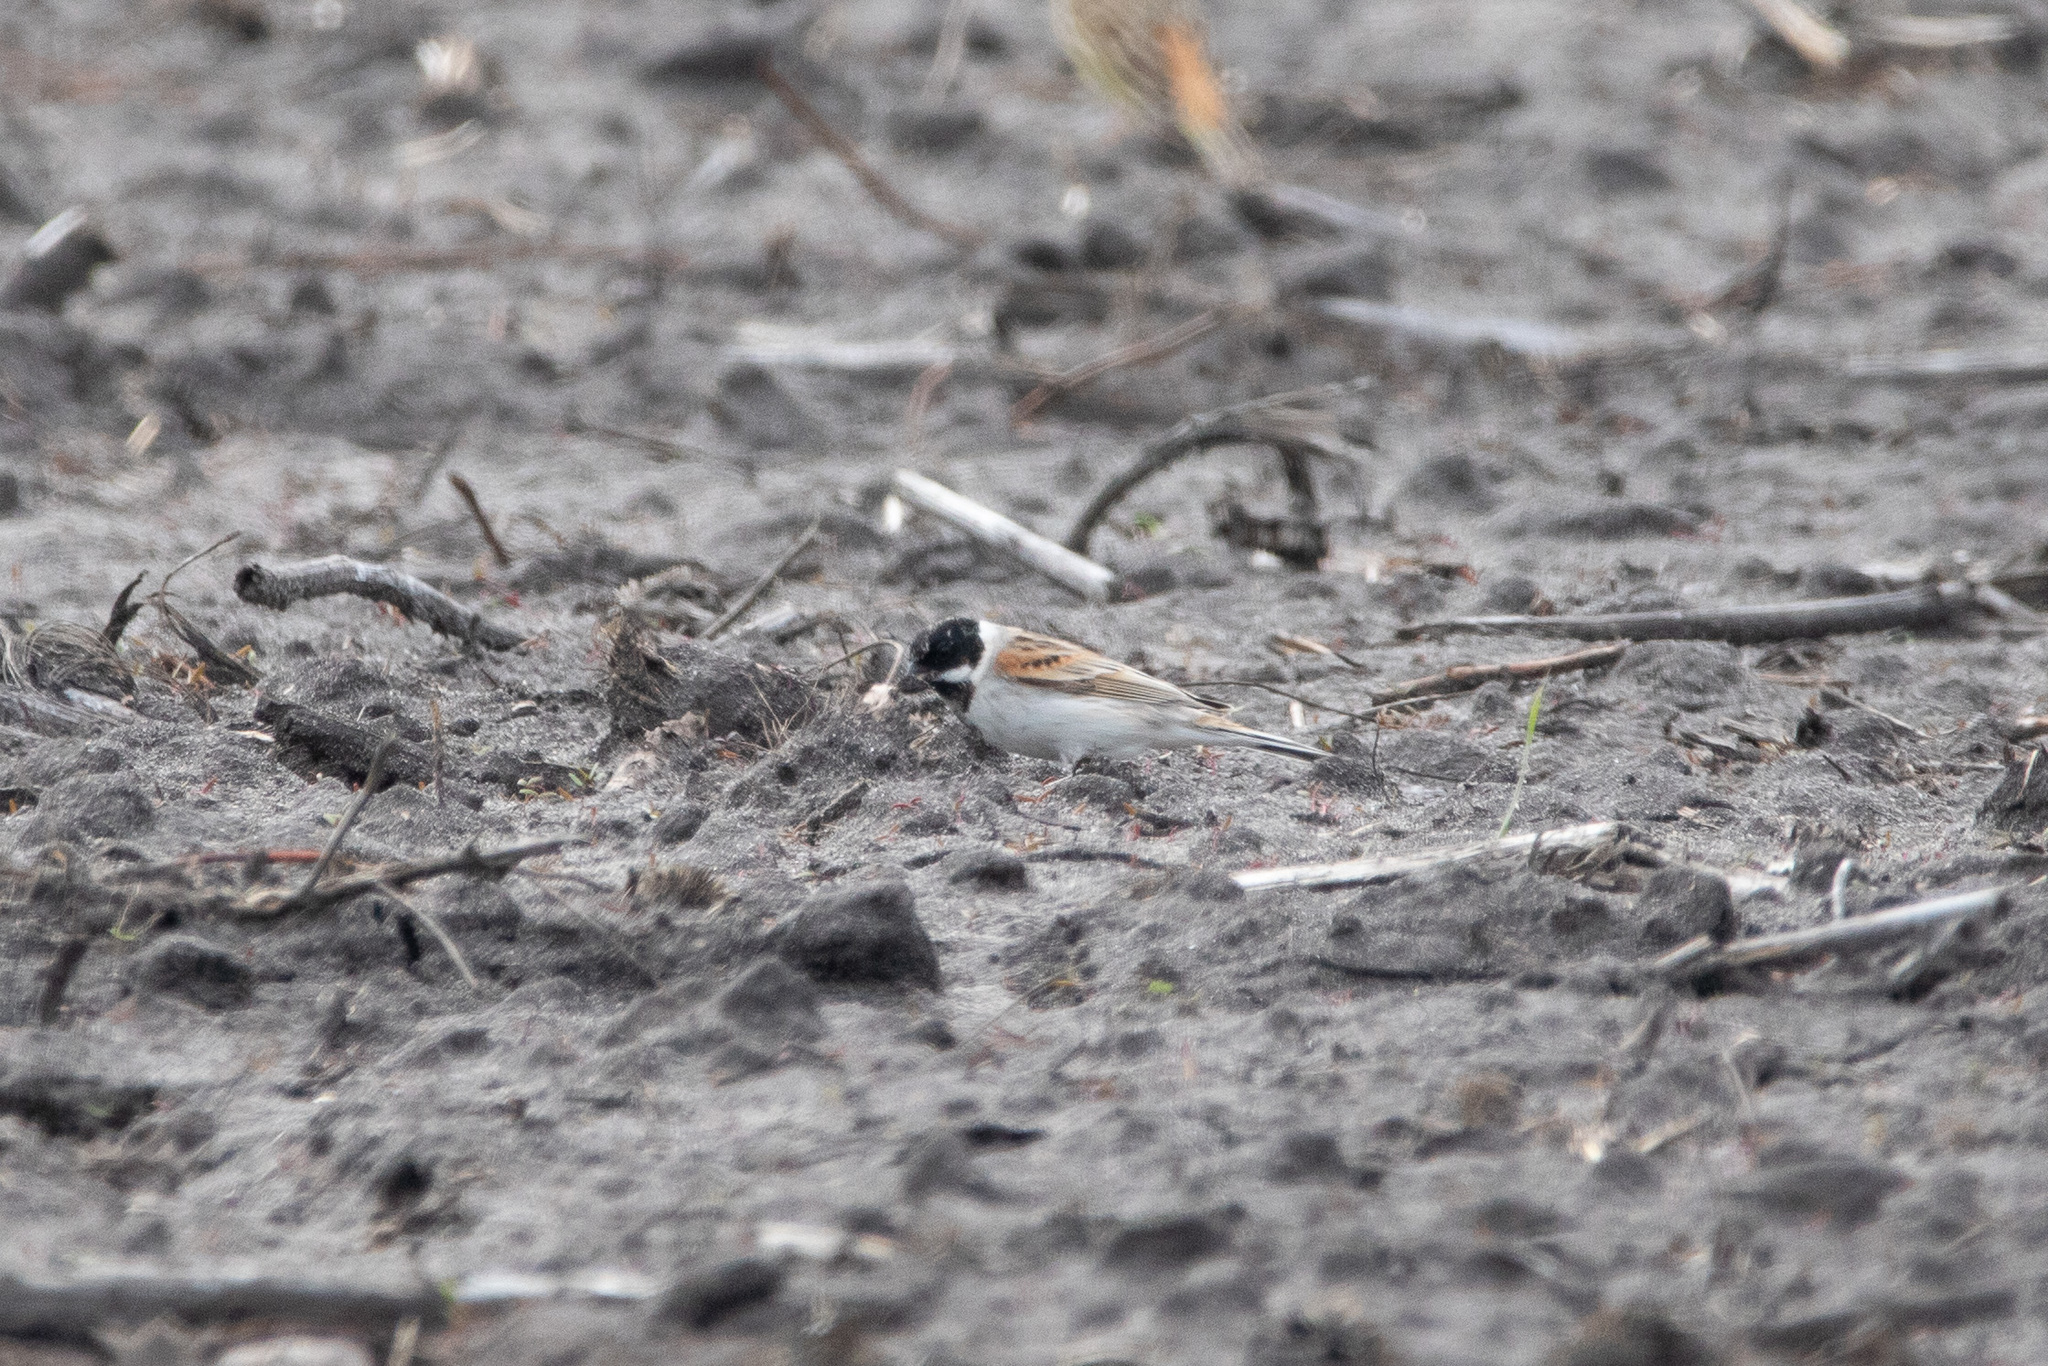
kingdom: Animalia
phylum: Chordata
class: Aves
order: Passeriformes
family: Emberizidae
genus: Emberiza
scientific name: Emberiza schoeniclus
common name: Reed bunting
